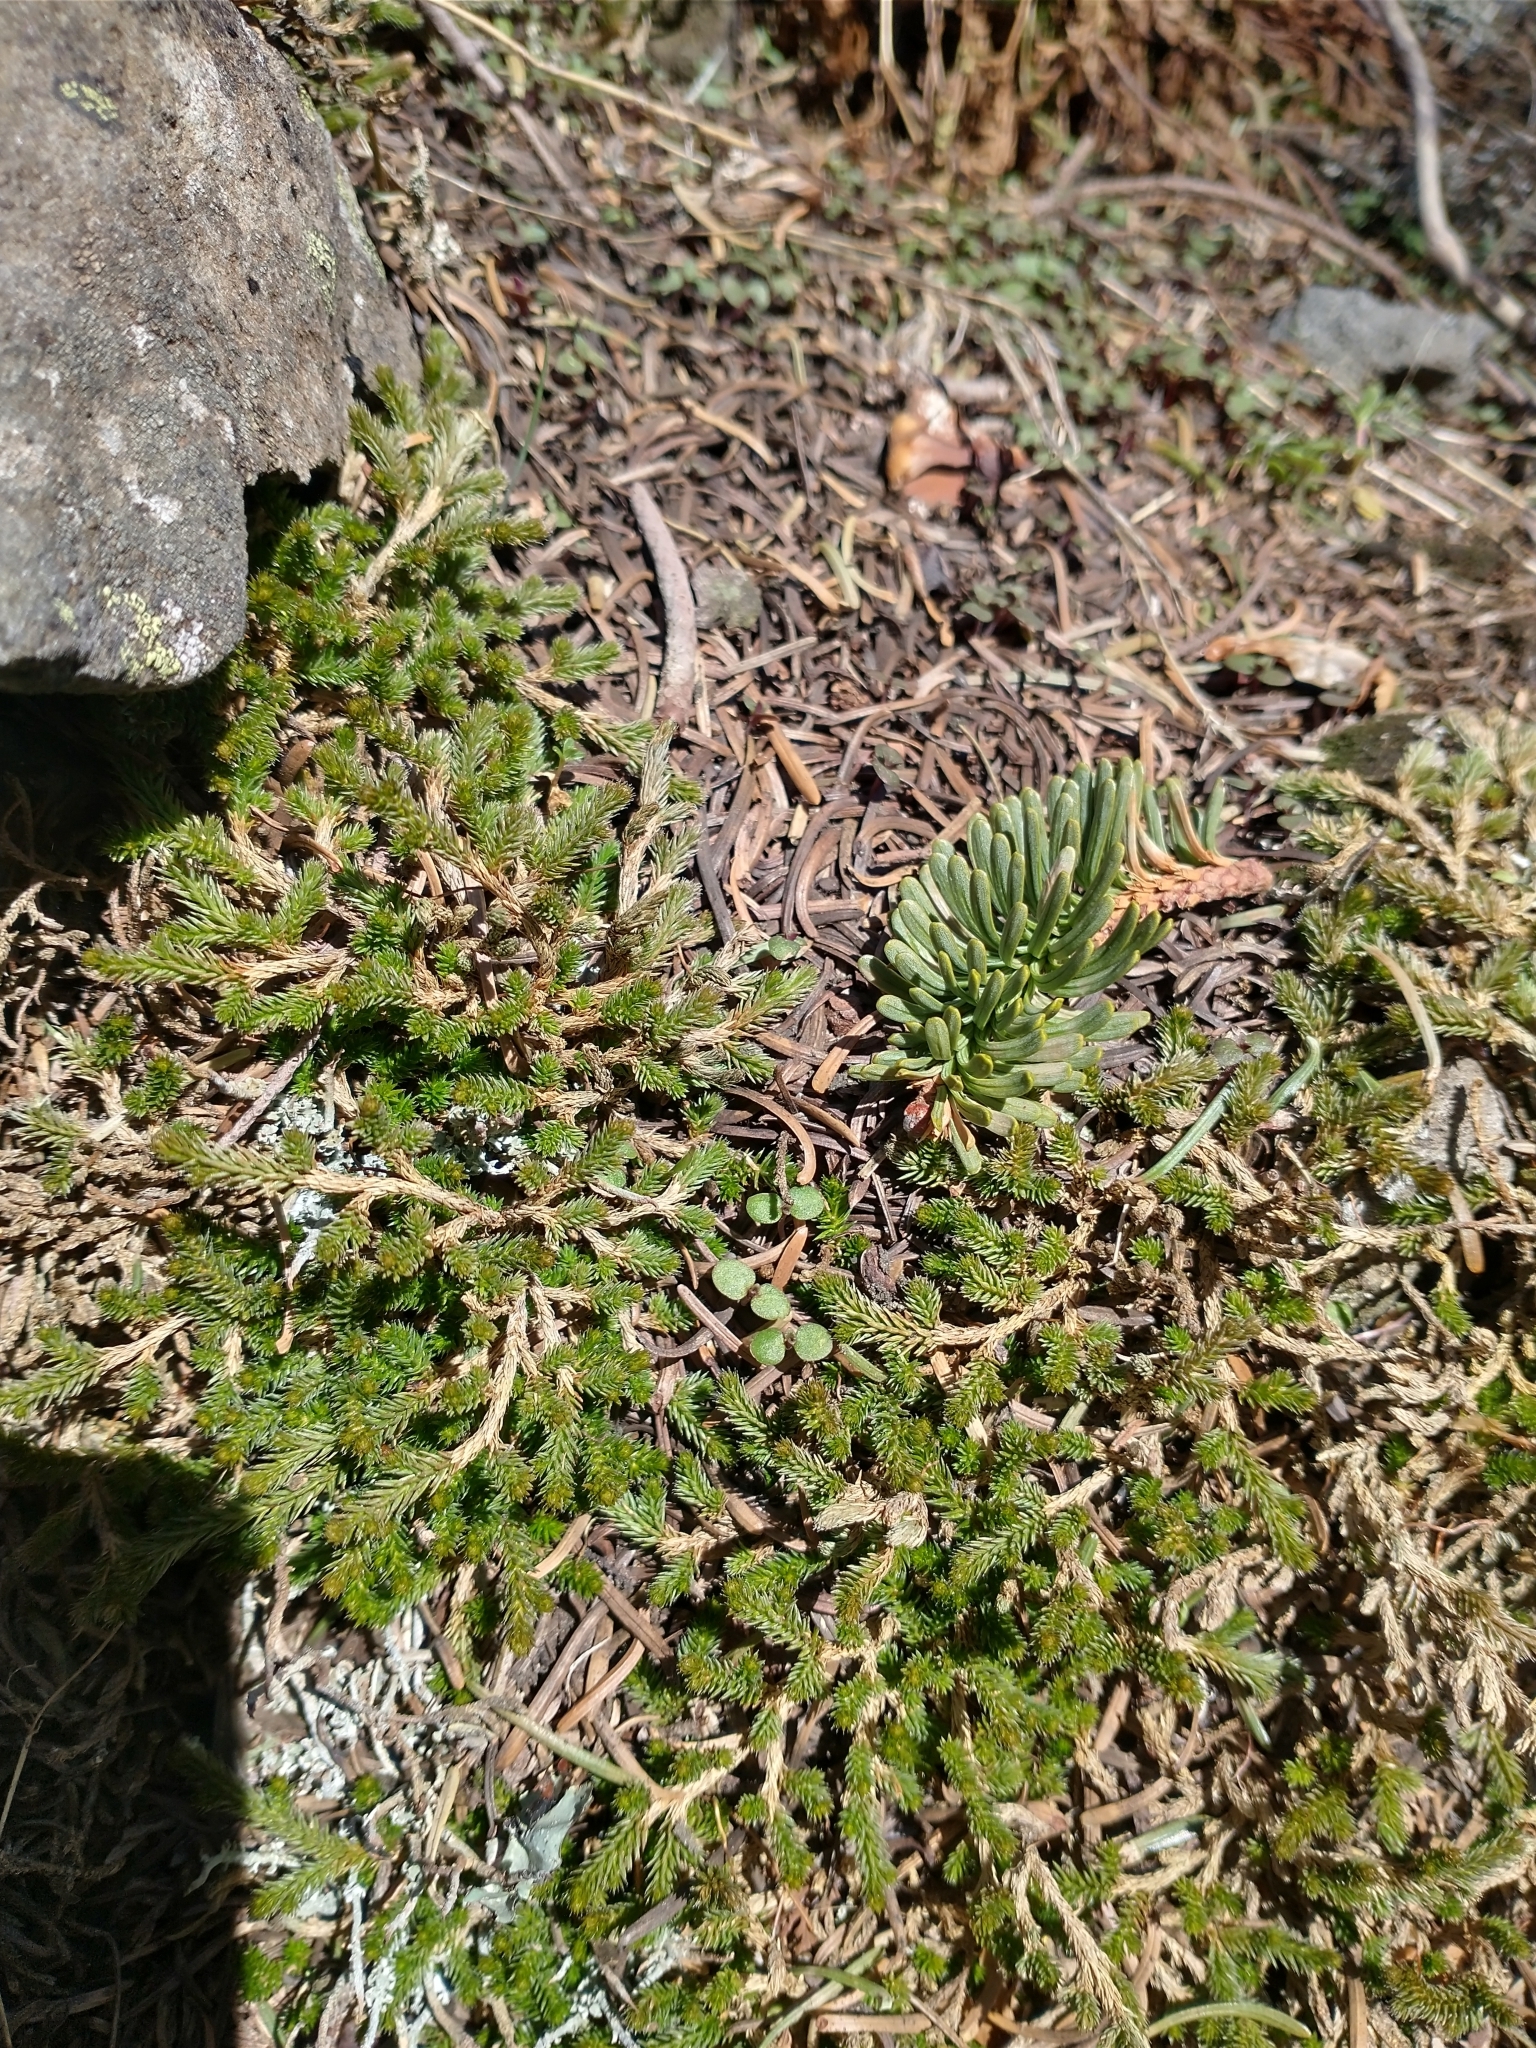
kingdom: Plantae
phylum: Tracheophyta
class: Lycopodiopsida
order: Selaginellales
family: Selaginellaceae
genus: Selaginella
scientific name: Selaginella wallacei
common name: Wallace's selaginella
